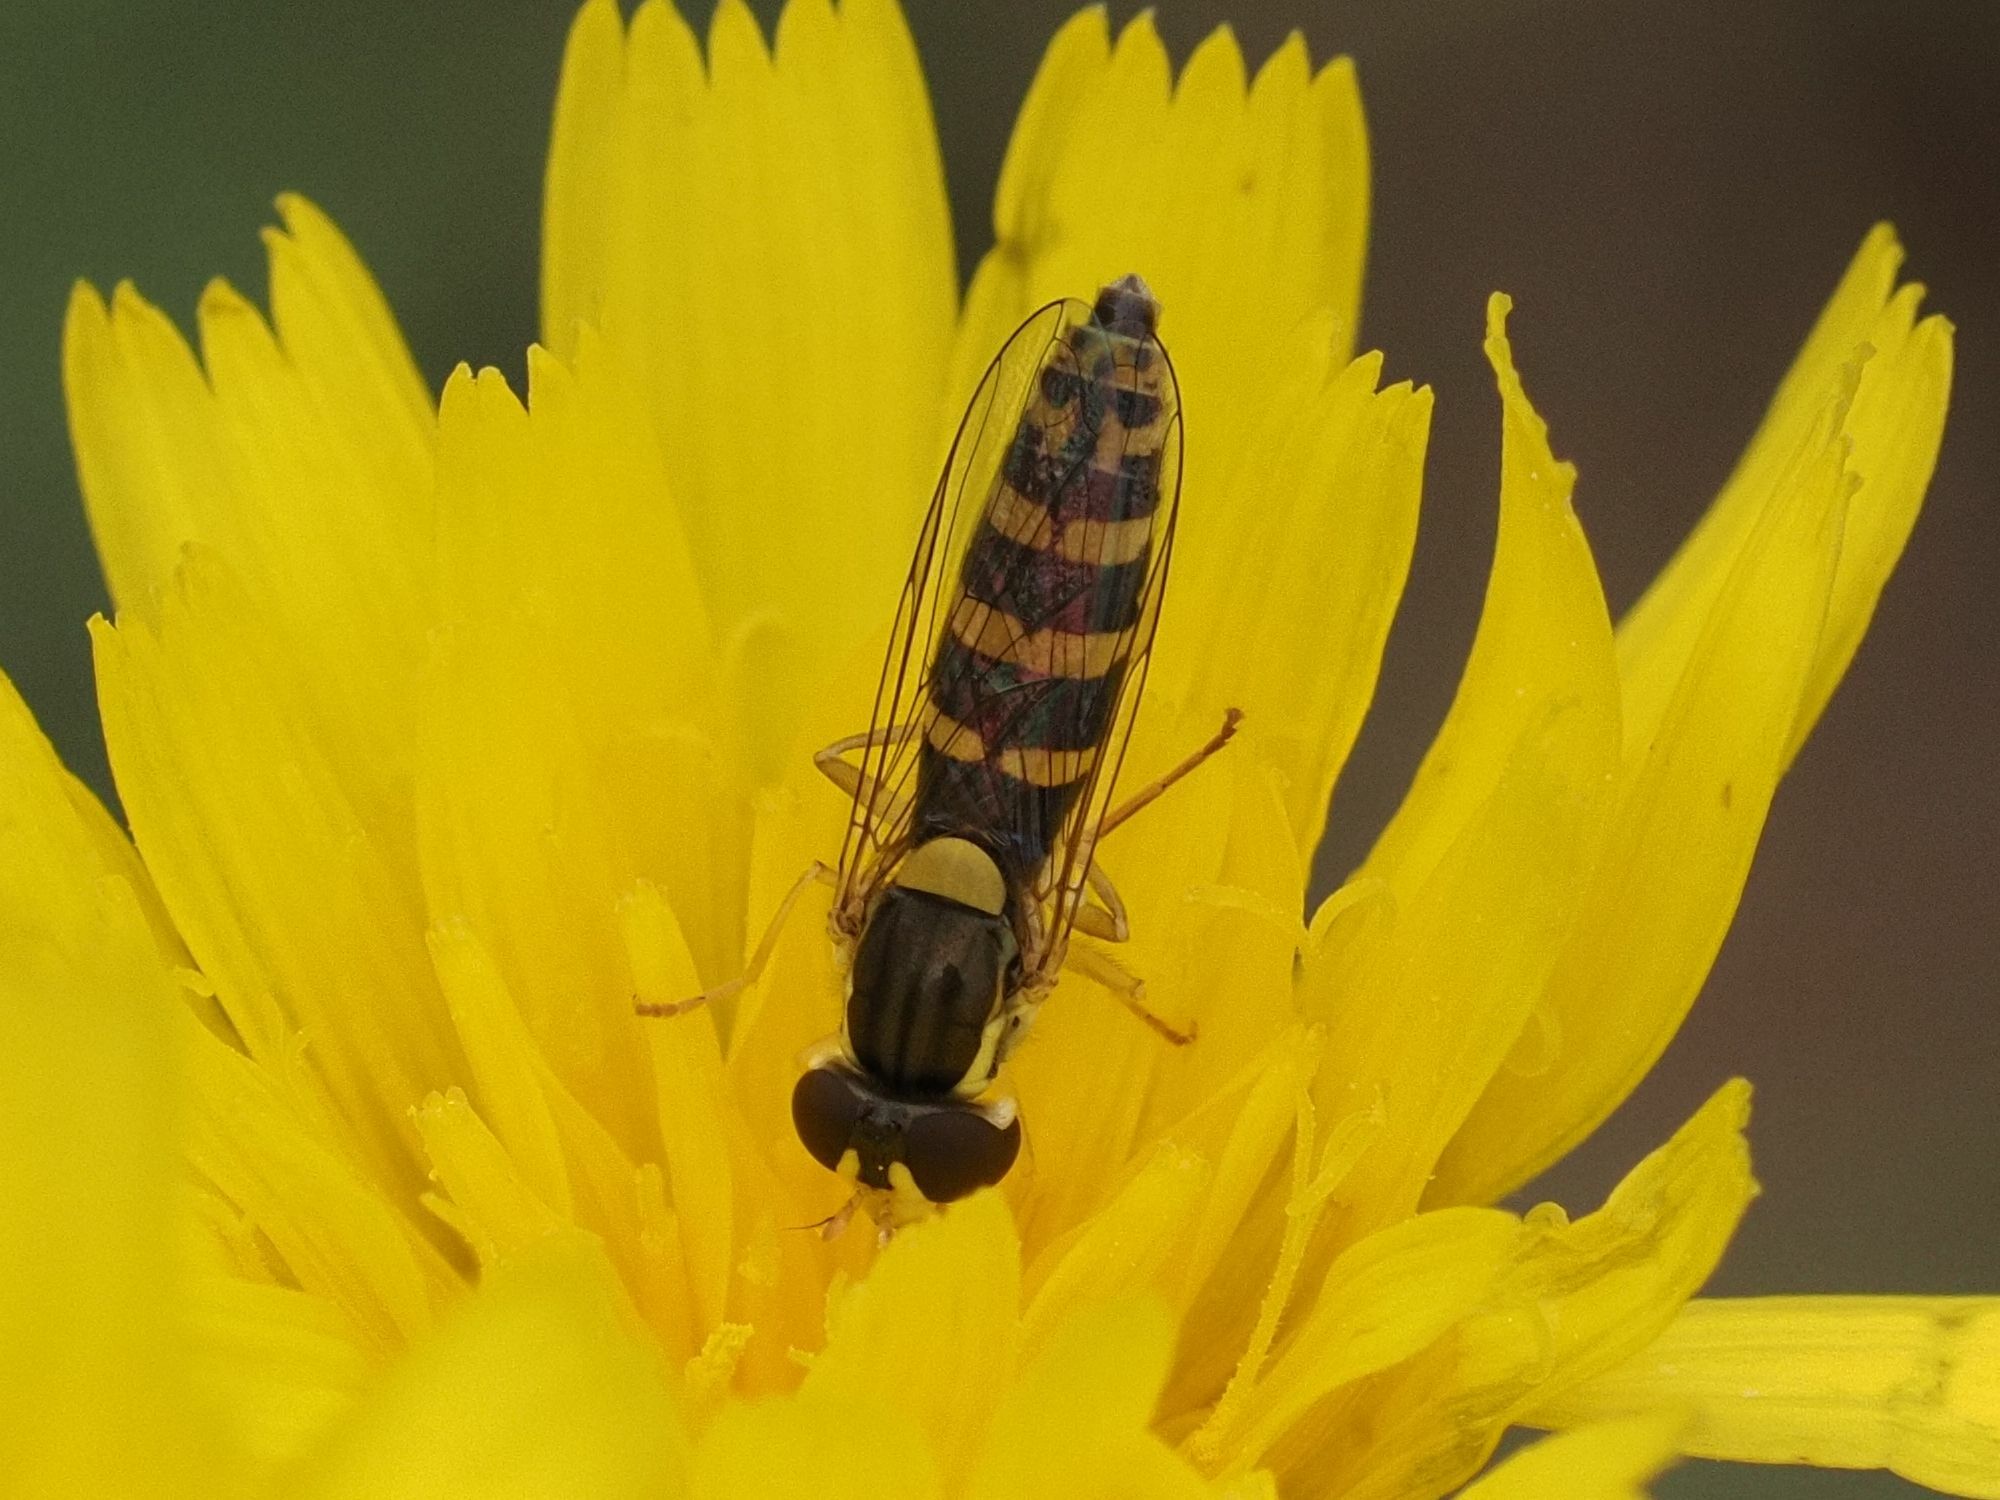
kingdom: Animalia
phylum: Arthropoda
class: Insecta
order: Diptera
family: Syrphidae
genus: Sphaerophoria
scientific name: Sphaerophoria
